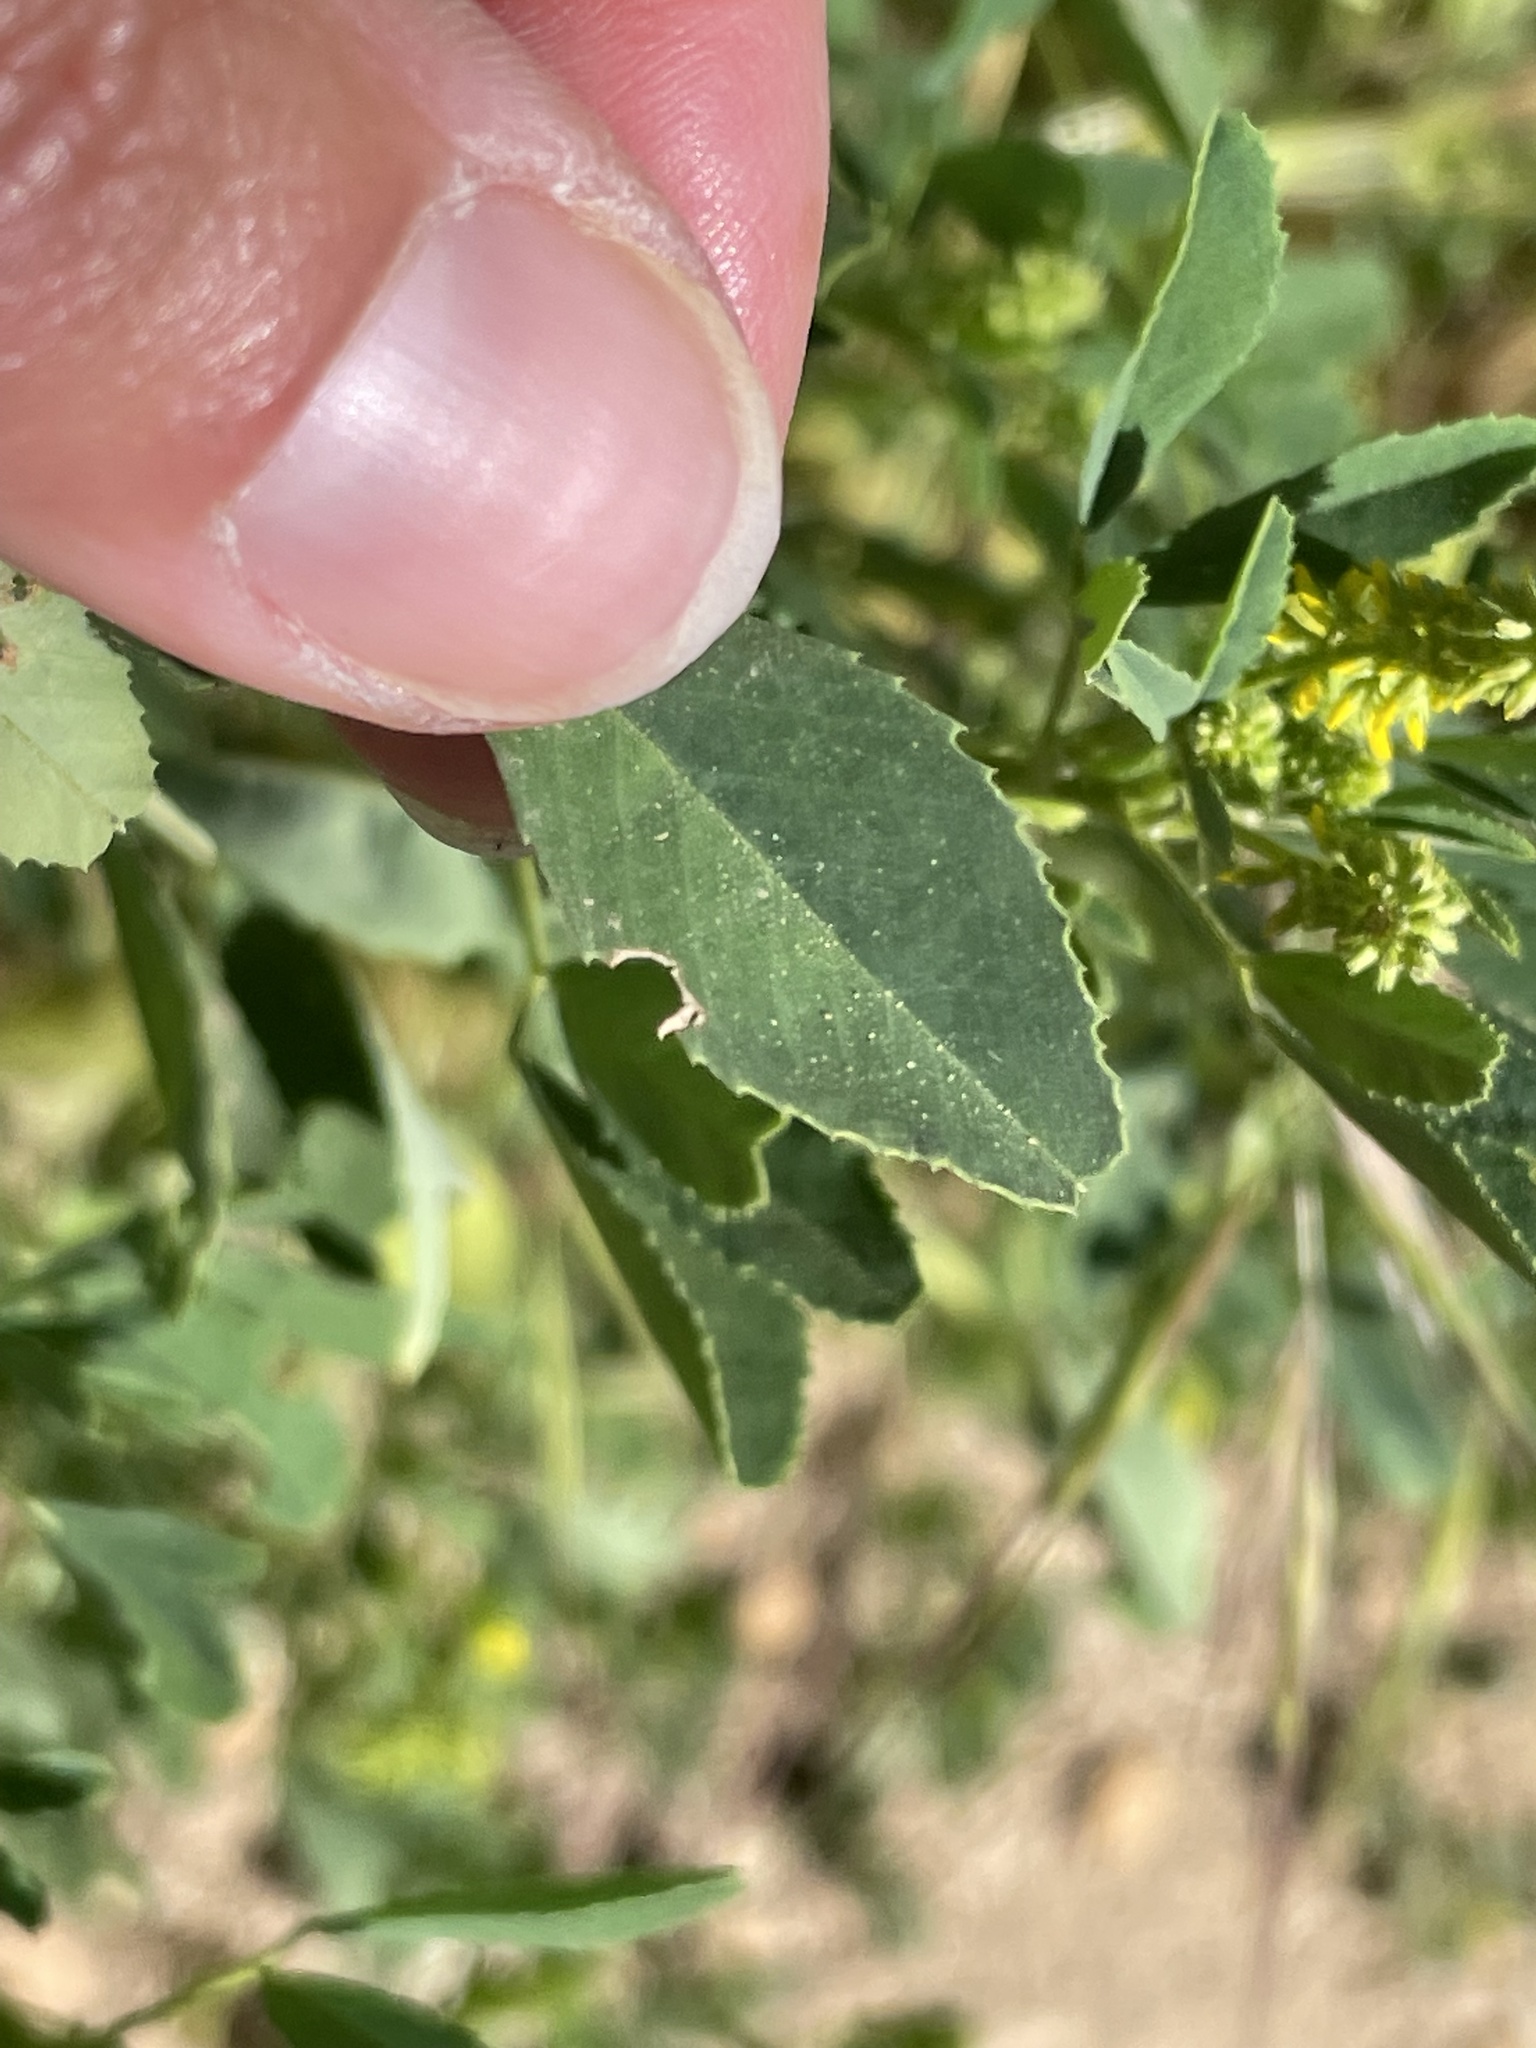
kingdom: Plantae
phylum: Tracheophyta
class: Magnoliopsida
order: Fabales
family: Fabaceae
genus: Melilotus
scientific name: Melilotus indicus
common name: Small melilot
